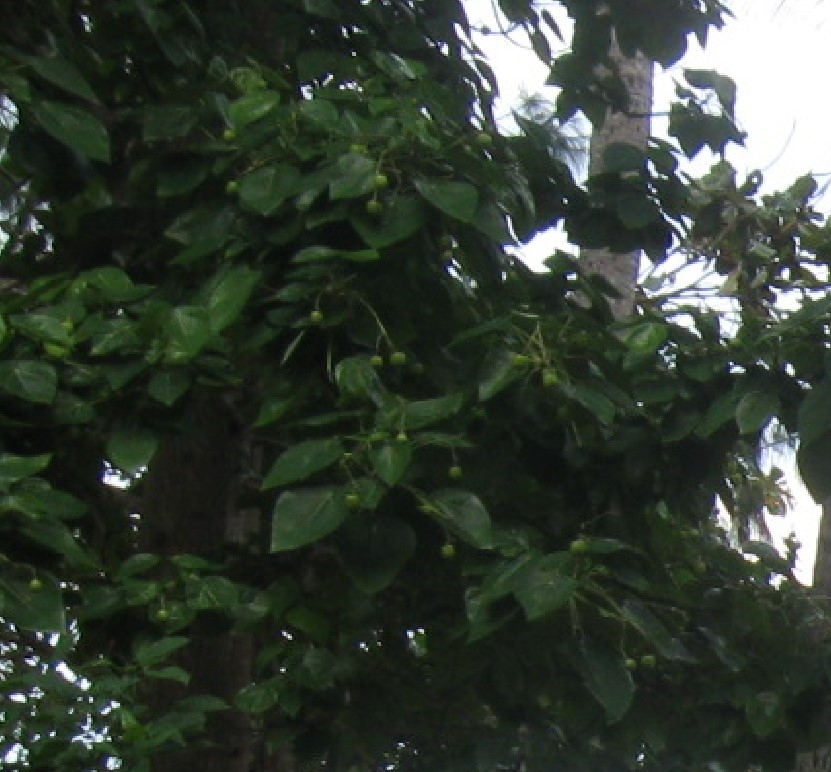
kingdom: Plantae
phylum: Tracheophyta
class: Magnoliopsida
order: Laurales
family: Hernandiaceae
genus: Hernandia
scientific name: Hernandia nymphaeifolia
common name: Sea hearse
